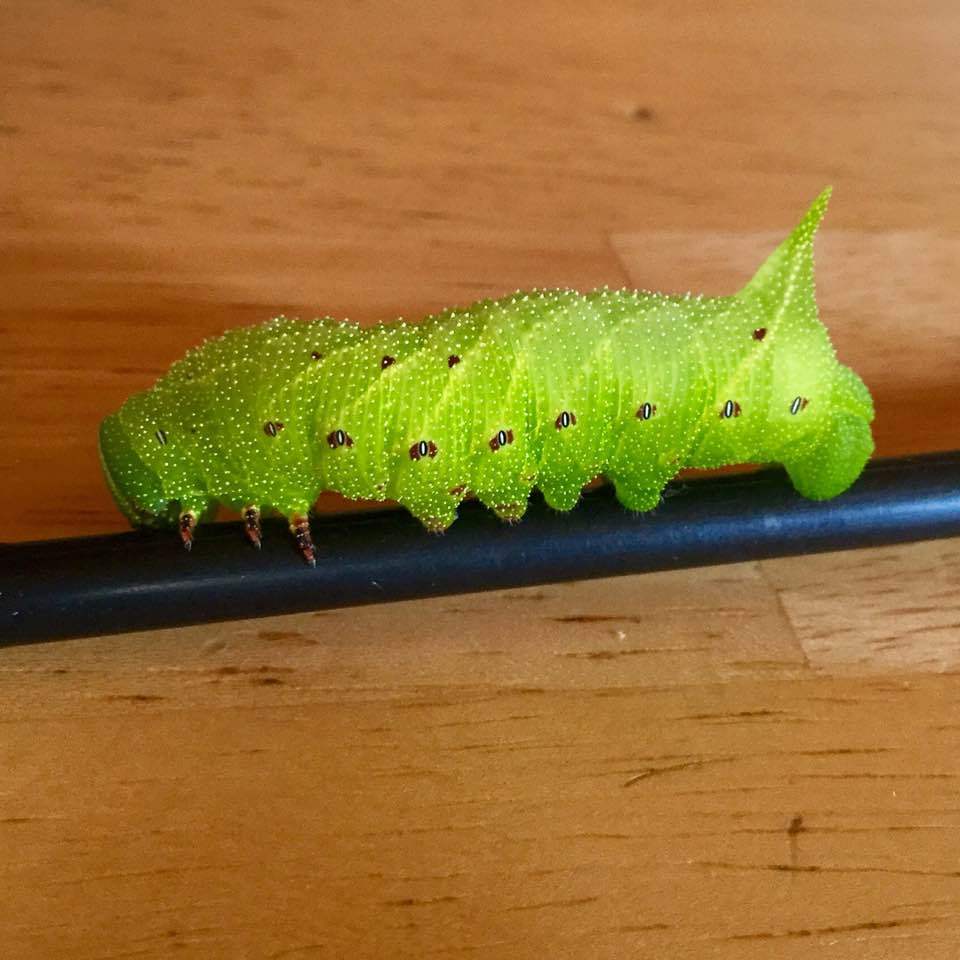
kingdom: Animalia
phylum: Arthropoda
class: Insecta
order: Lepidoptera
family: Sphingidae
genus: Paonias
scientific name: Paonias excaecata
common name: Blind-eyed sphinx
